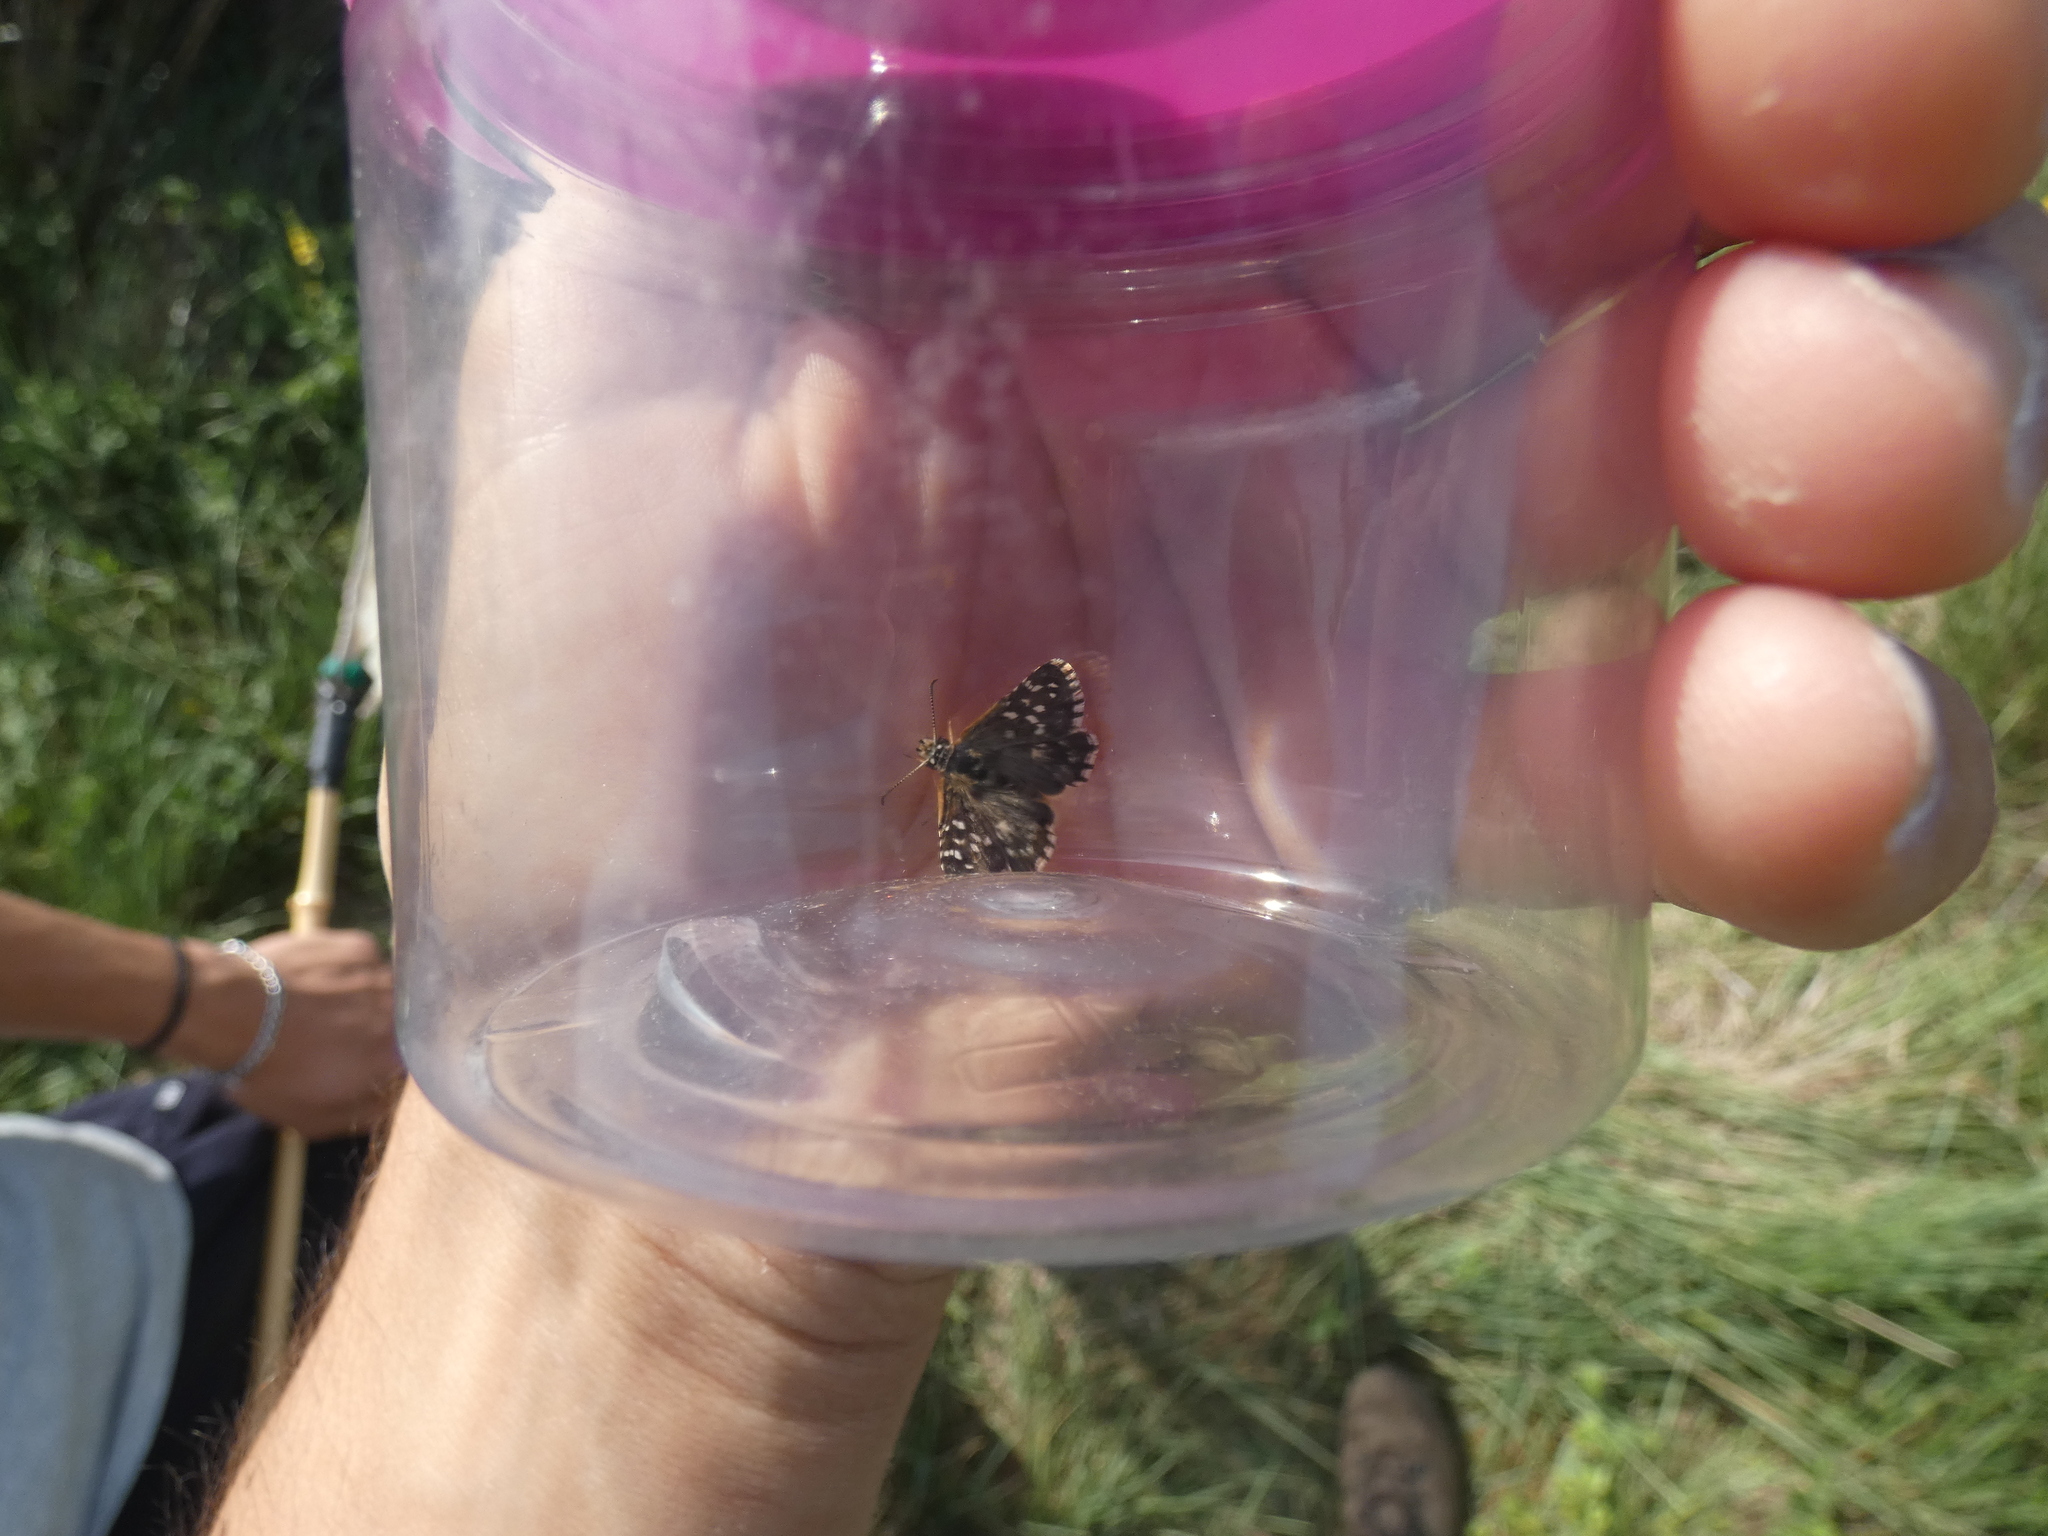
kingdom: Animalia
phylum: Arthropoda
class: Insecta
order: Lepidoptera
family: Hesperiidae
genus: Pyrgus
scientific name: Pyrgus malvoides
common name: Southern grizzled skipper
